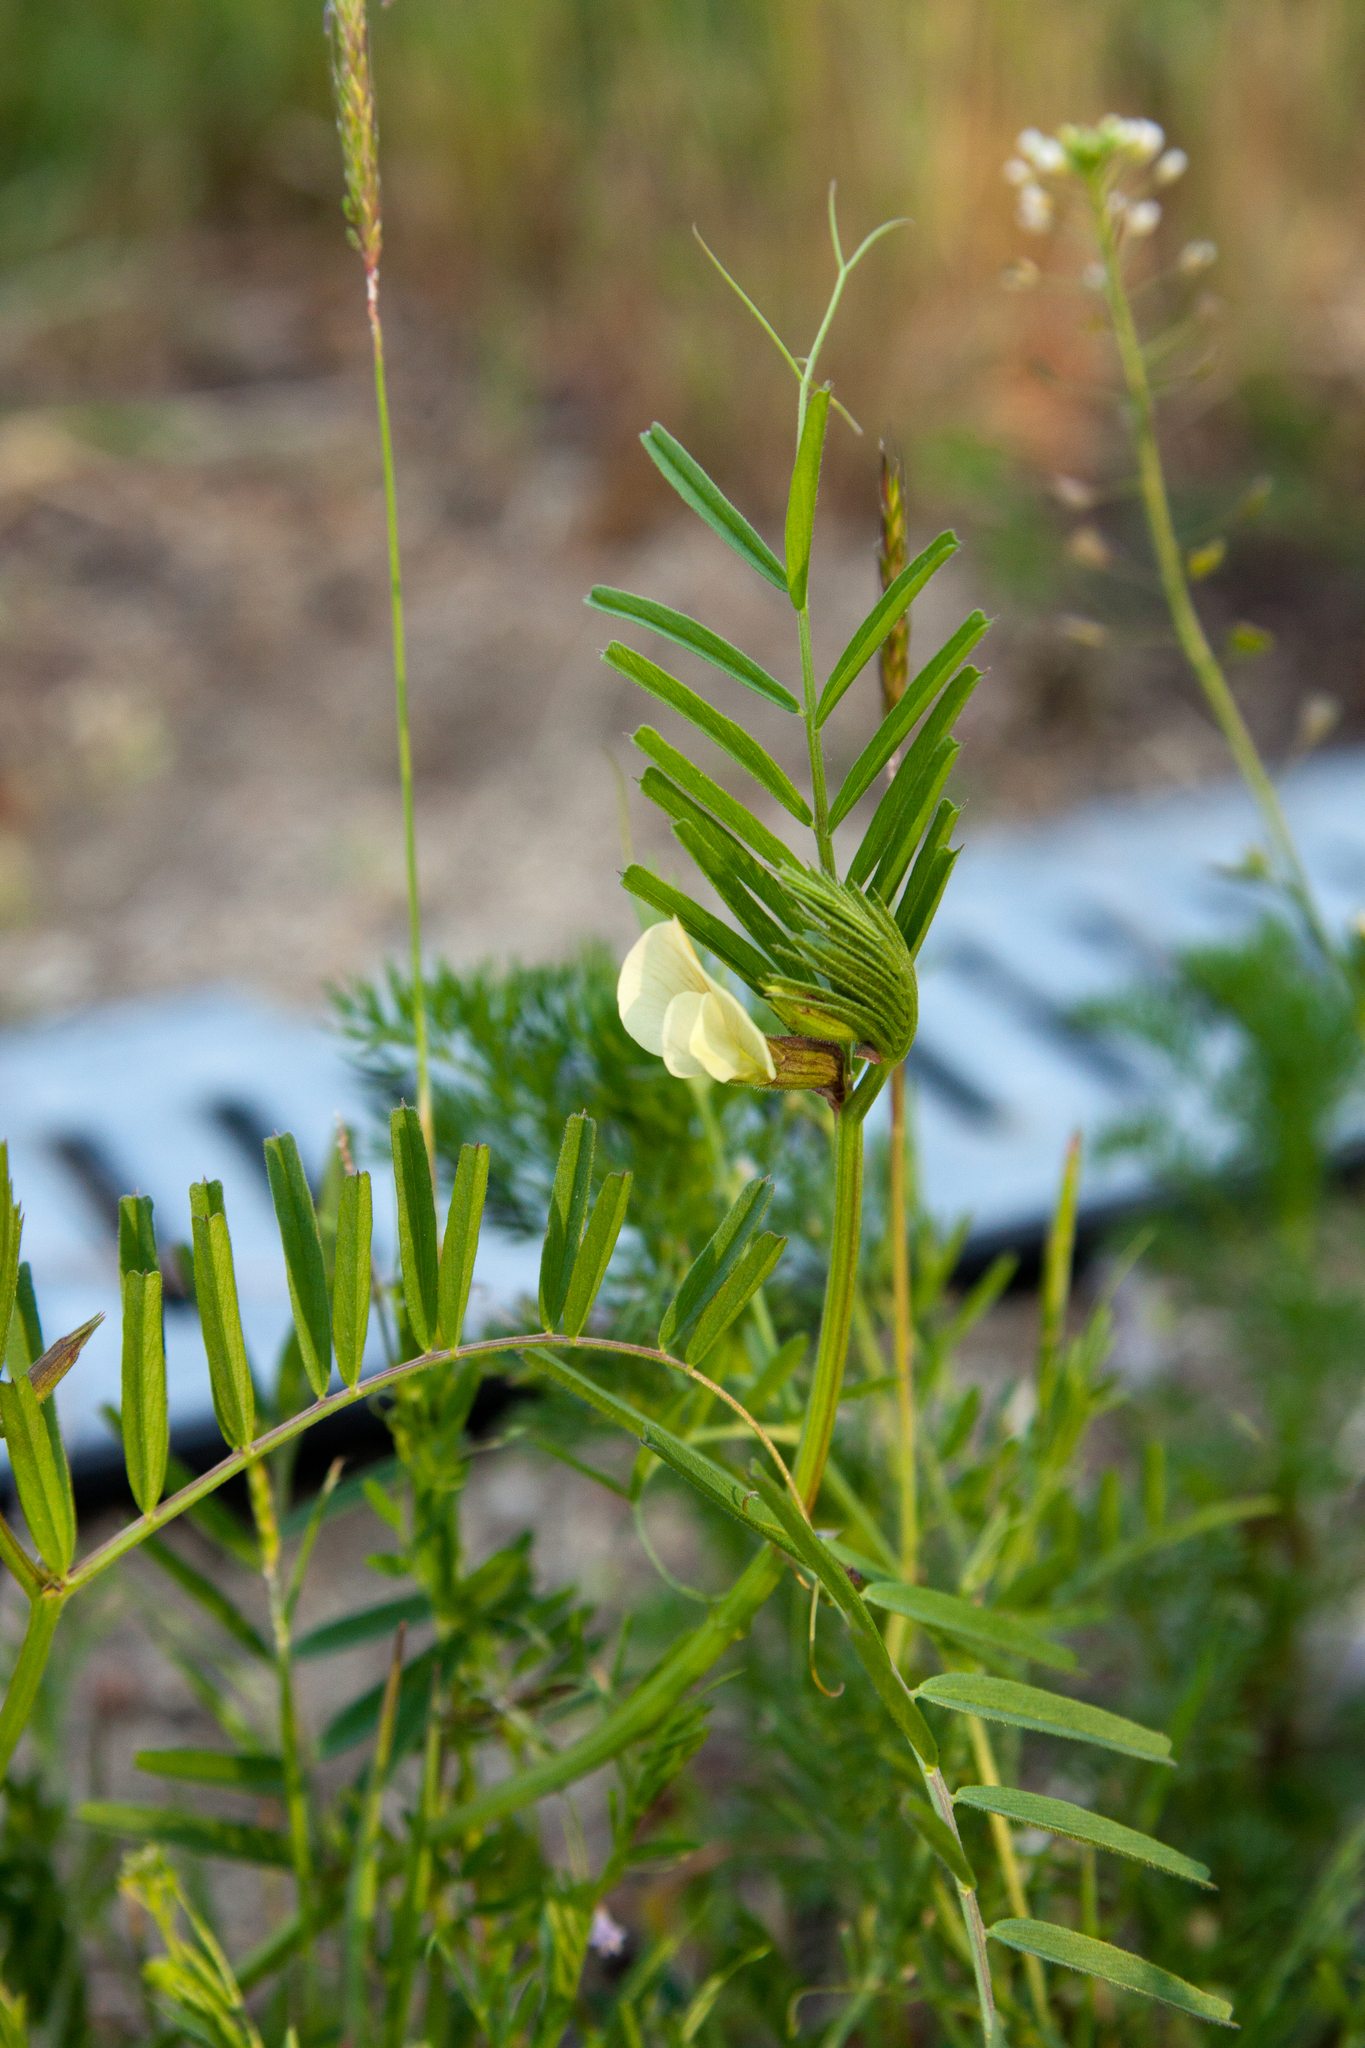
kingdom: Plantae
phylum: Tracheophyta
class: Magnoliopsida
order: Fabales
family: Fabaceae
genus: Vicia
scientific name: Vicia grandiflora
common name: Large yellow vetch
